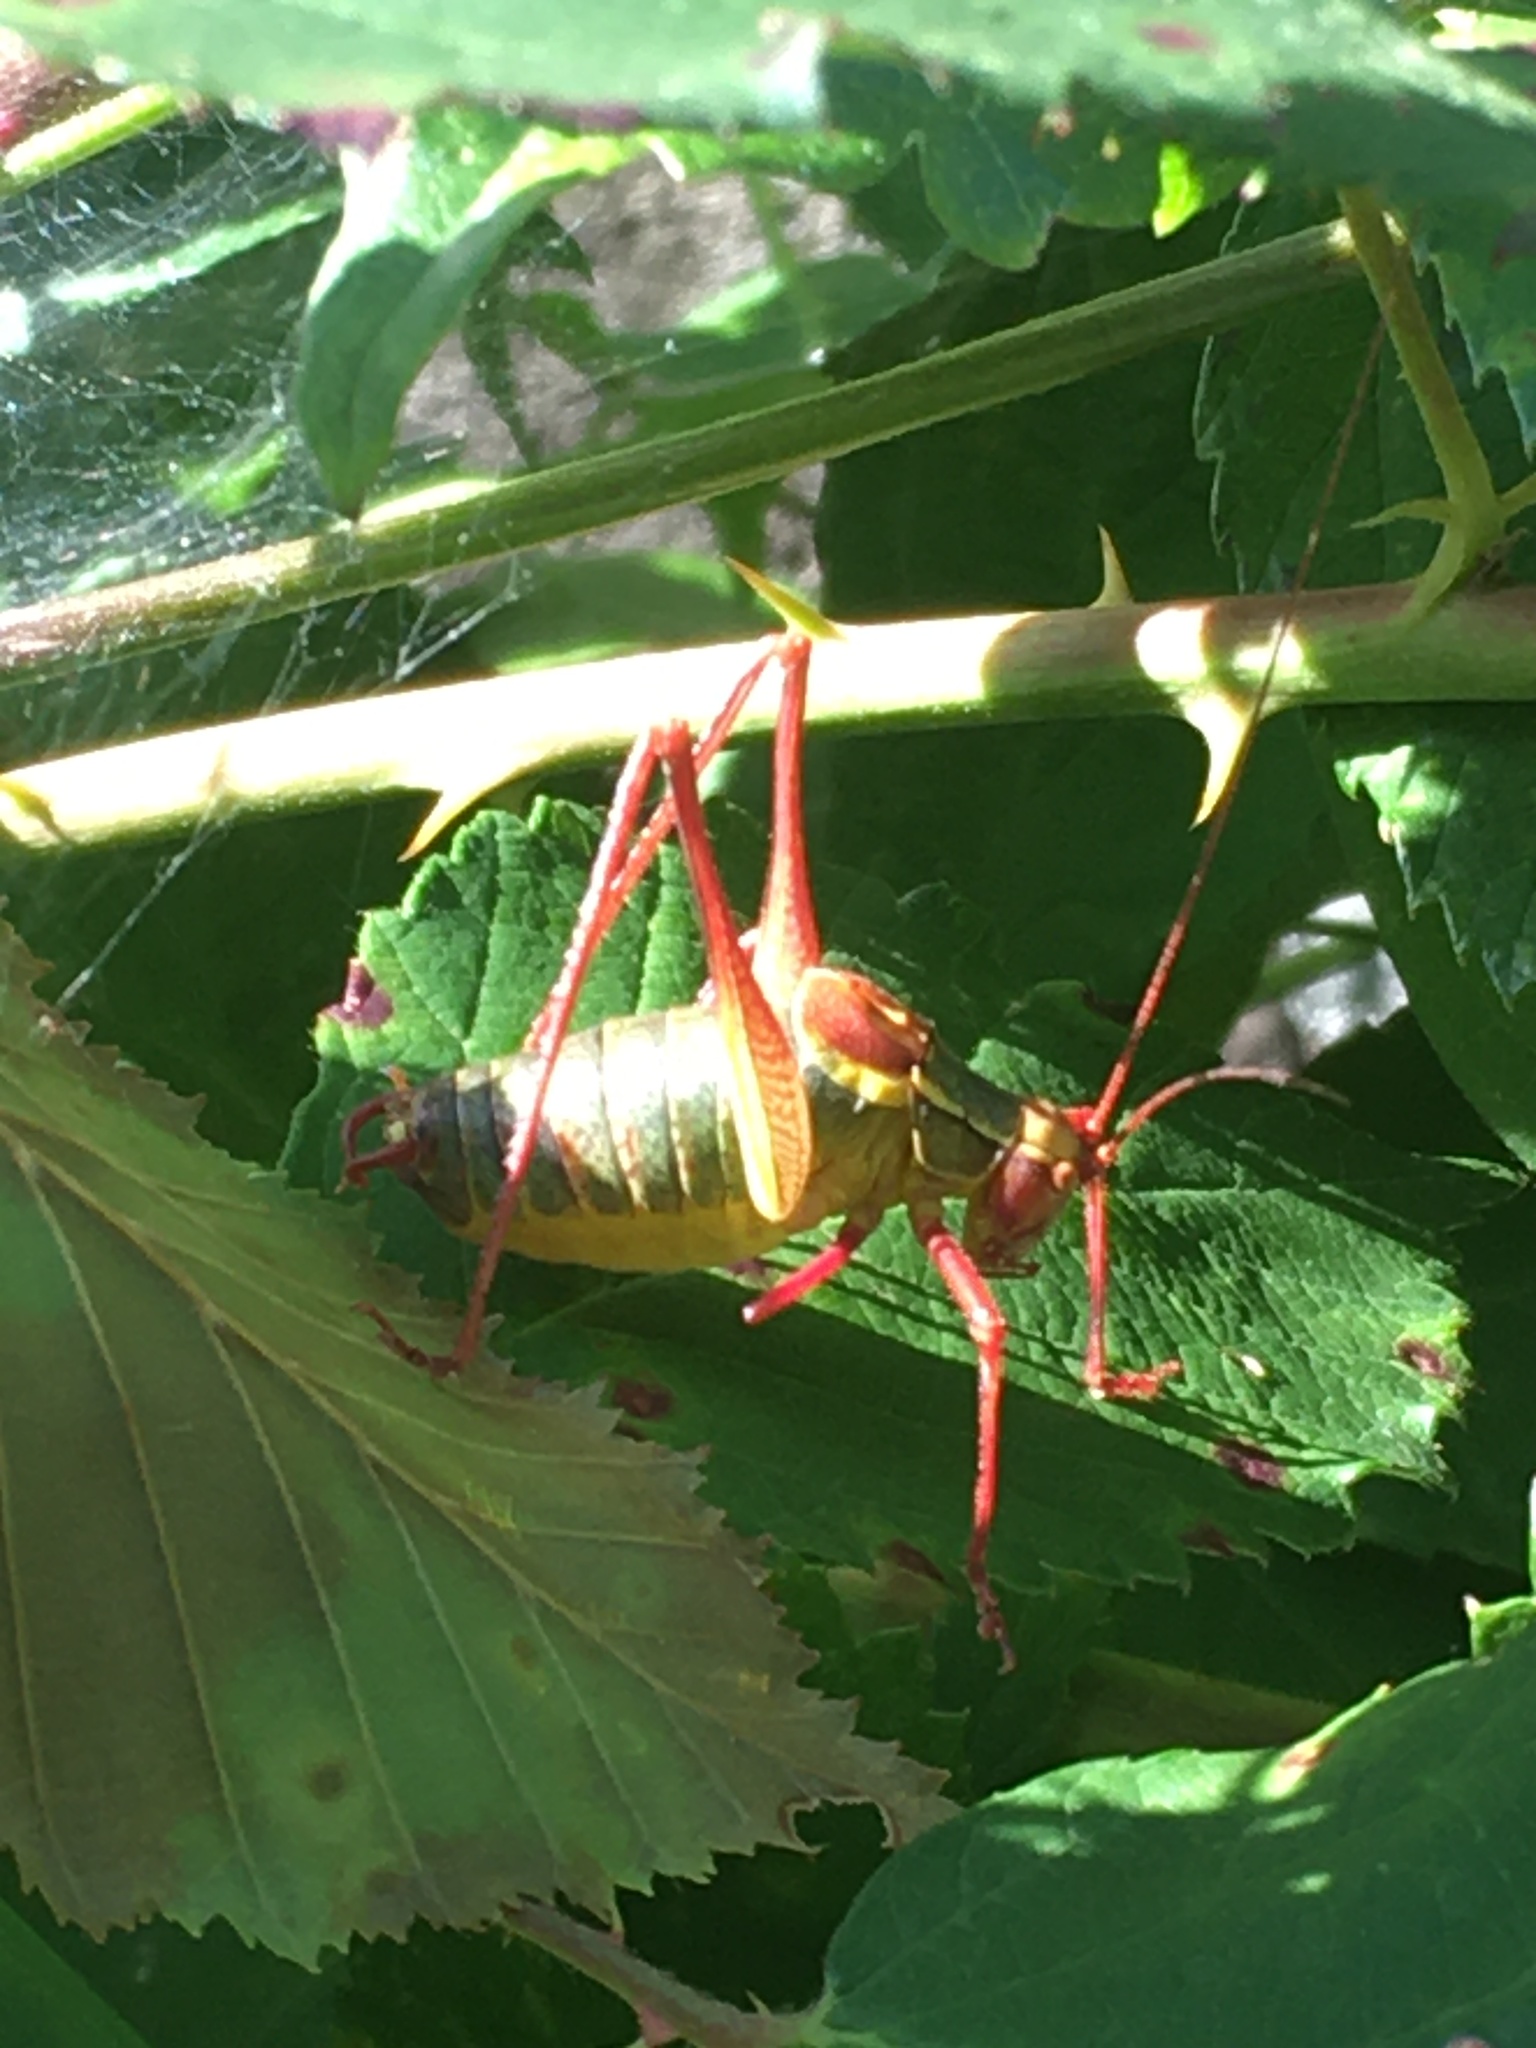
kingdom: Animalia
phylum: Arthropoda
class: Insecta
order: Orthoptera
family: Tettigoniidae
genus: Barbitistes
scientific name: Barbitistes serricauda
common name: Saw-tailed bush-cricket
